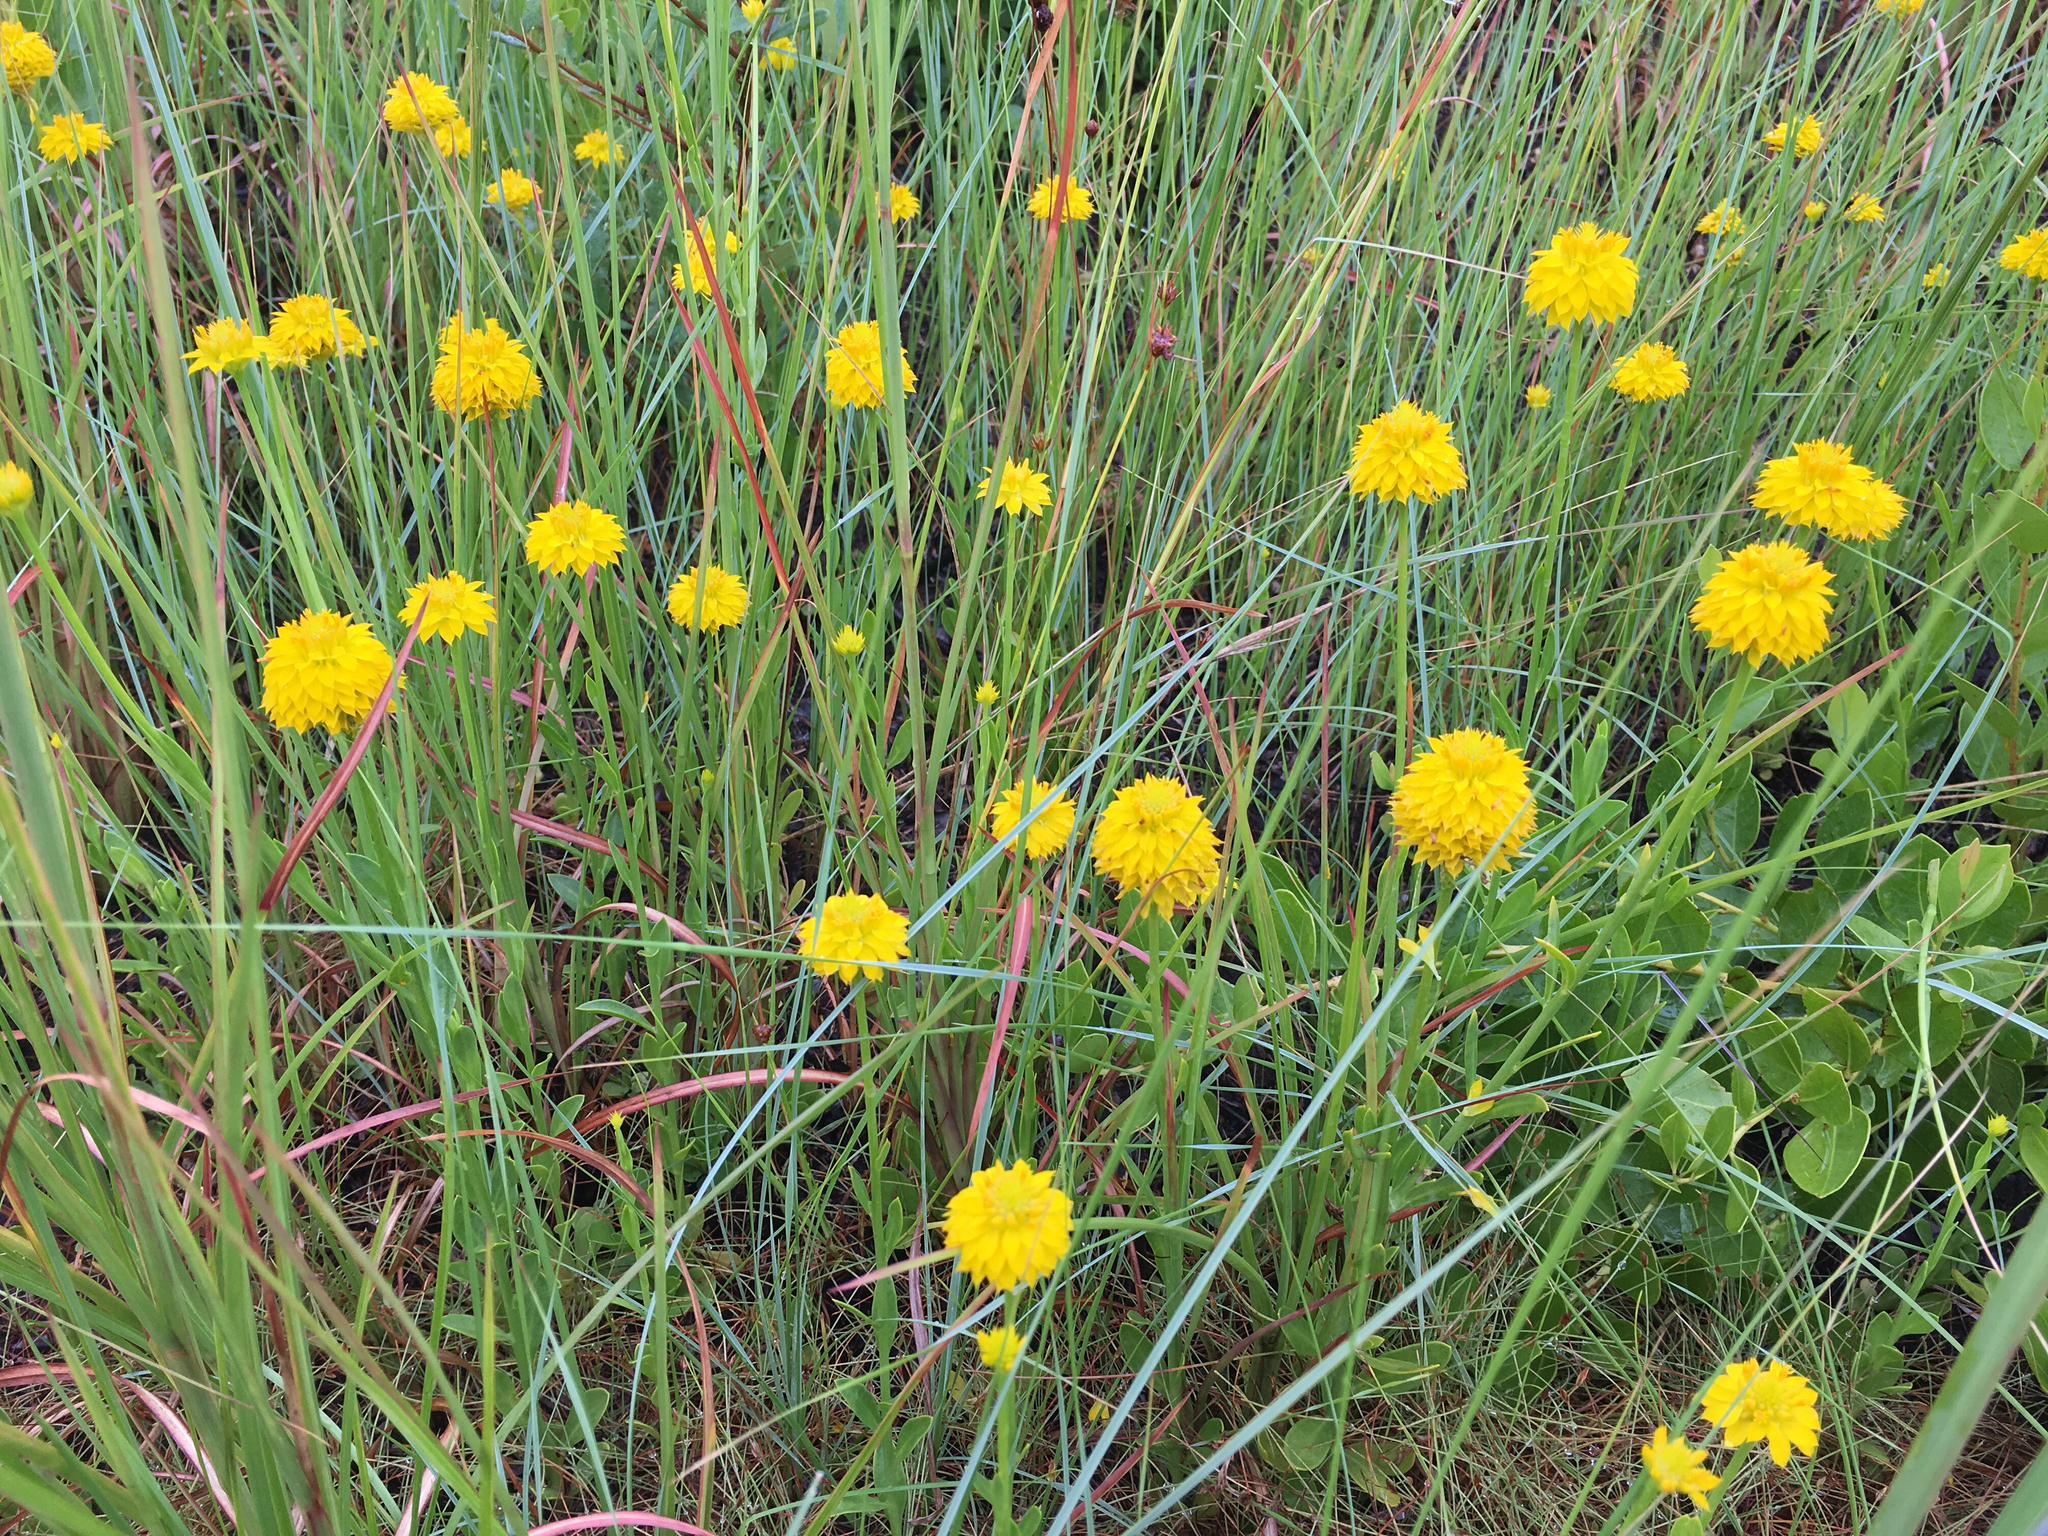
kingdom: Plantae
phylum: Tracheophyta
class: Magnoliopsida
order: Fabales
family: Polygalaceae
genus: Polygala
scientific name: Polygala rugelii
